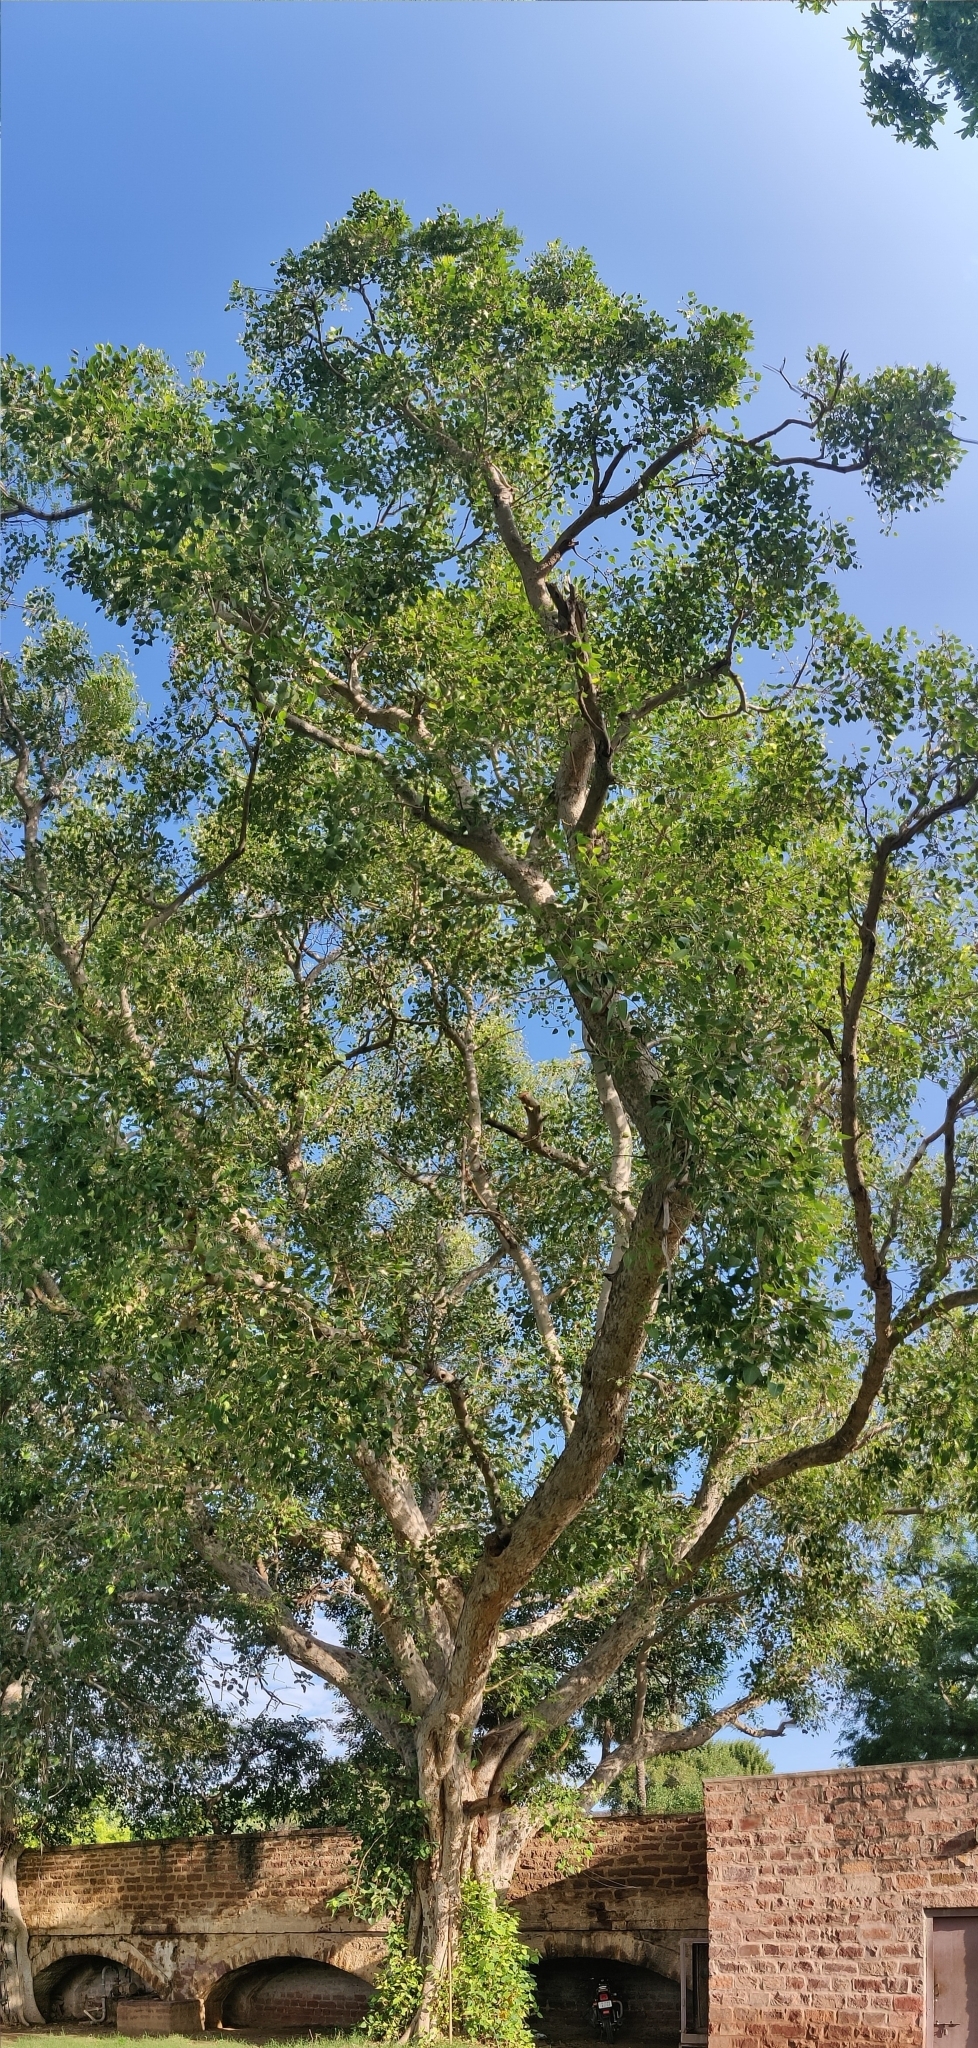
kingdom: Plantae
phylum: Tracheophyta
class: Magnoliopsida
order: Rosales
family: Moraceae
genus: Ficus
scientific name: Ficus religiosa
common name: Bodhi tree
